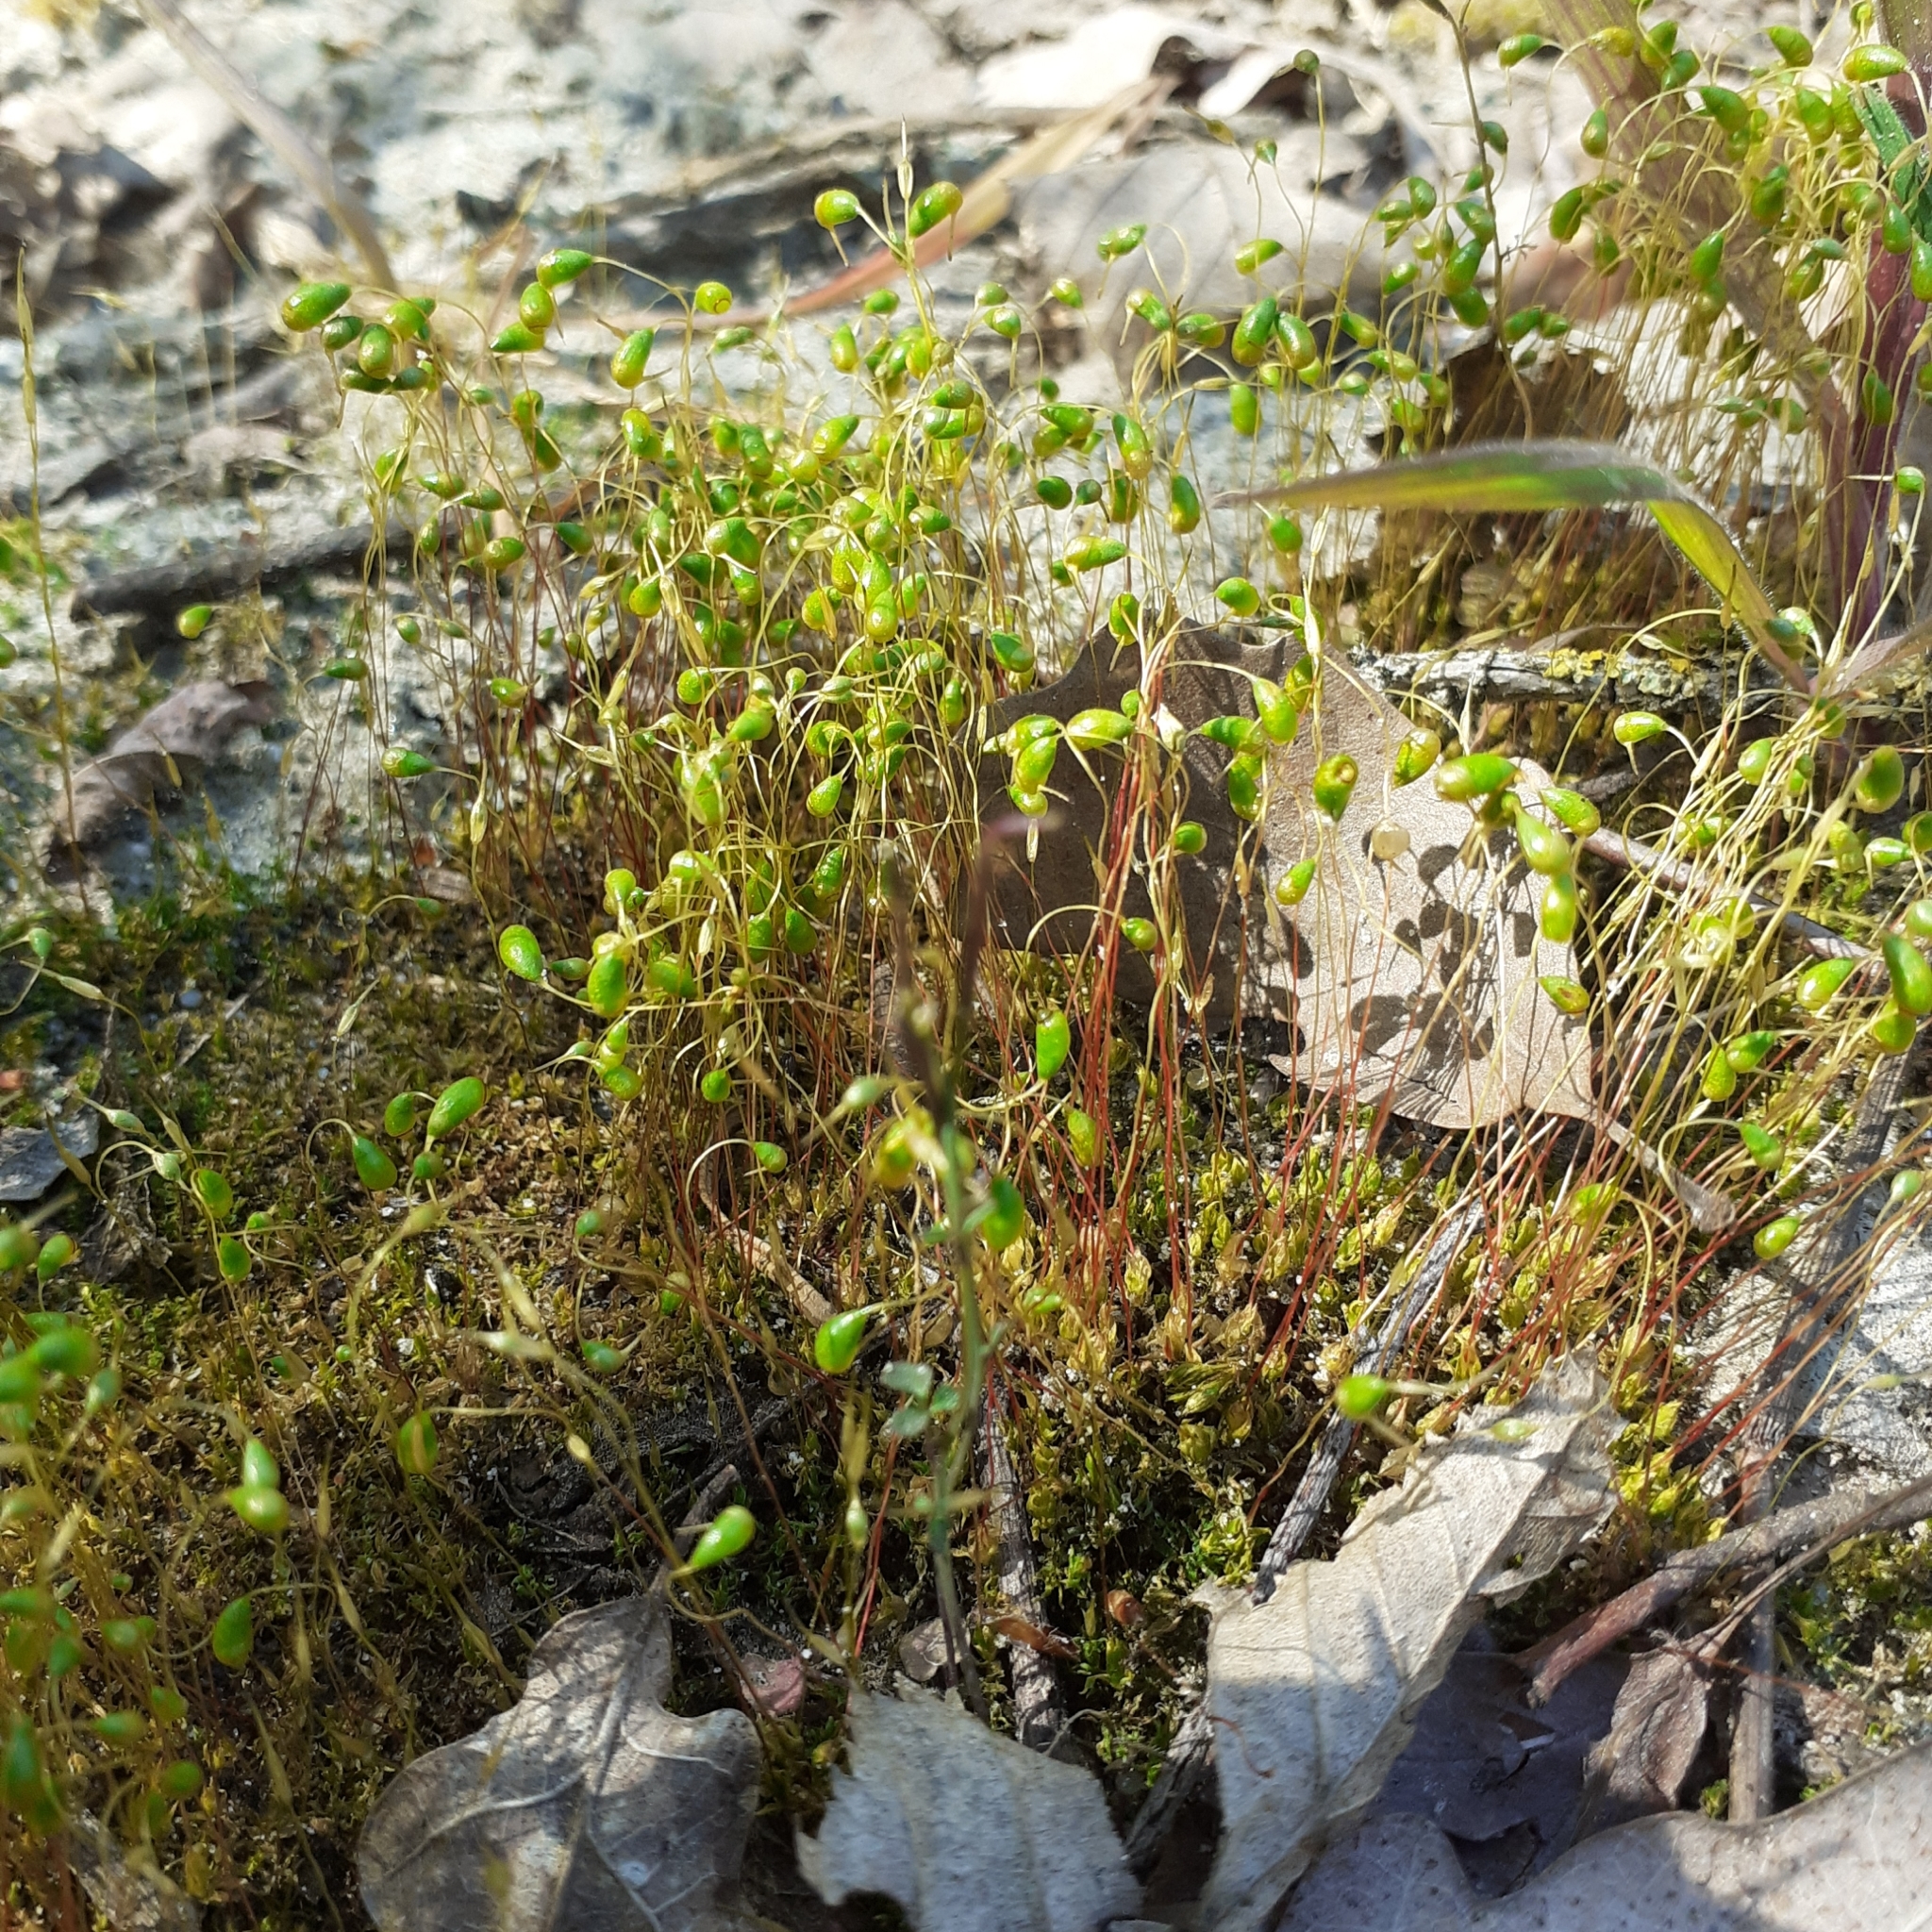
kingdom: Plantae
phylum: Bryophyta
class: Bryopsida
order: Funariales
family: Funariaceae
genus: Funaria
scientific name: Funaria hygrometrica
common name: Common cord moss
